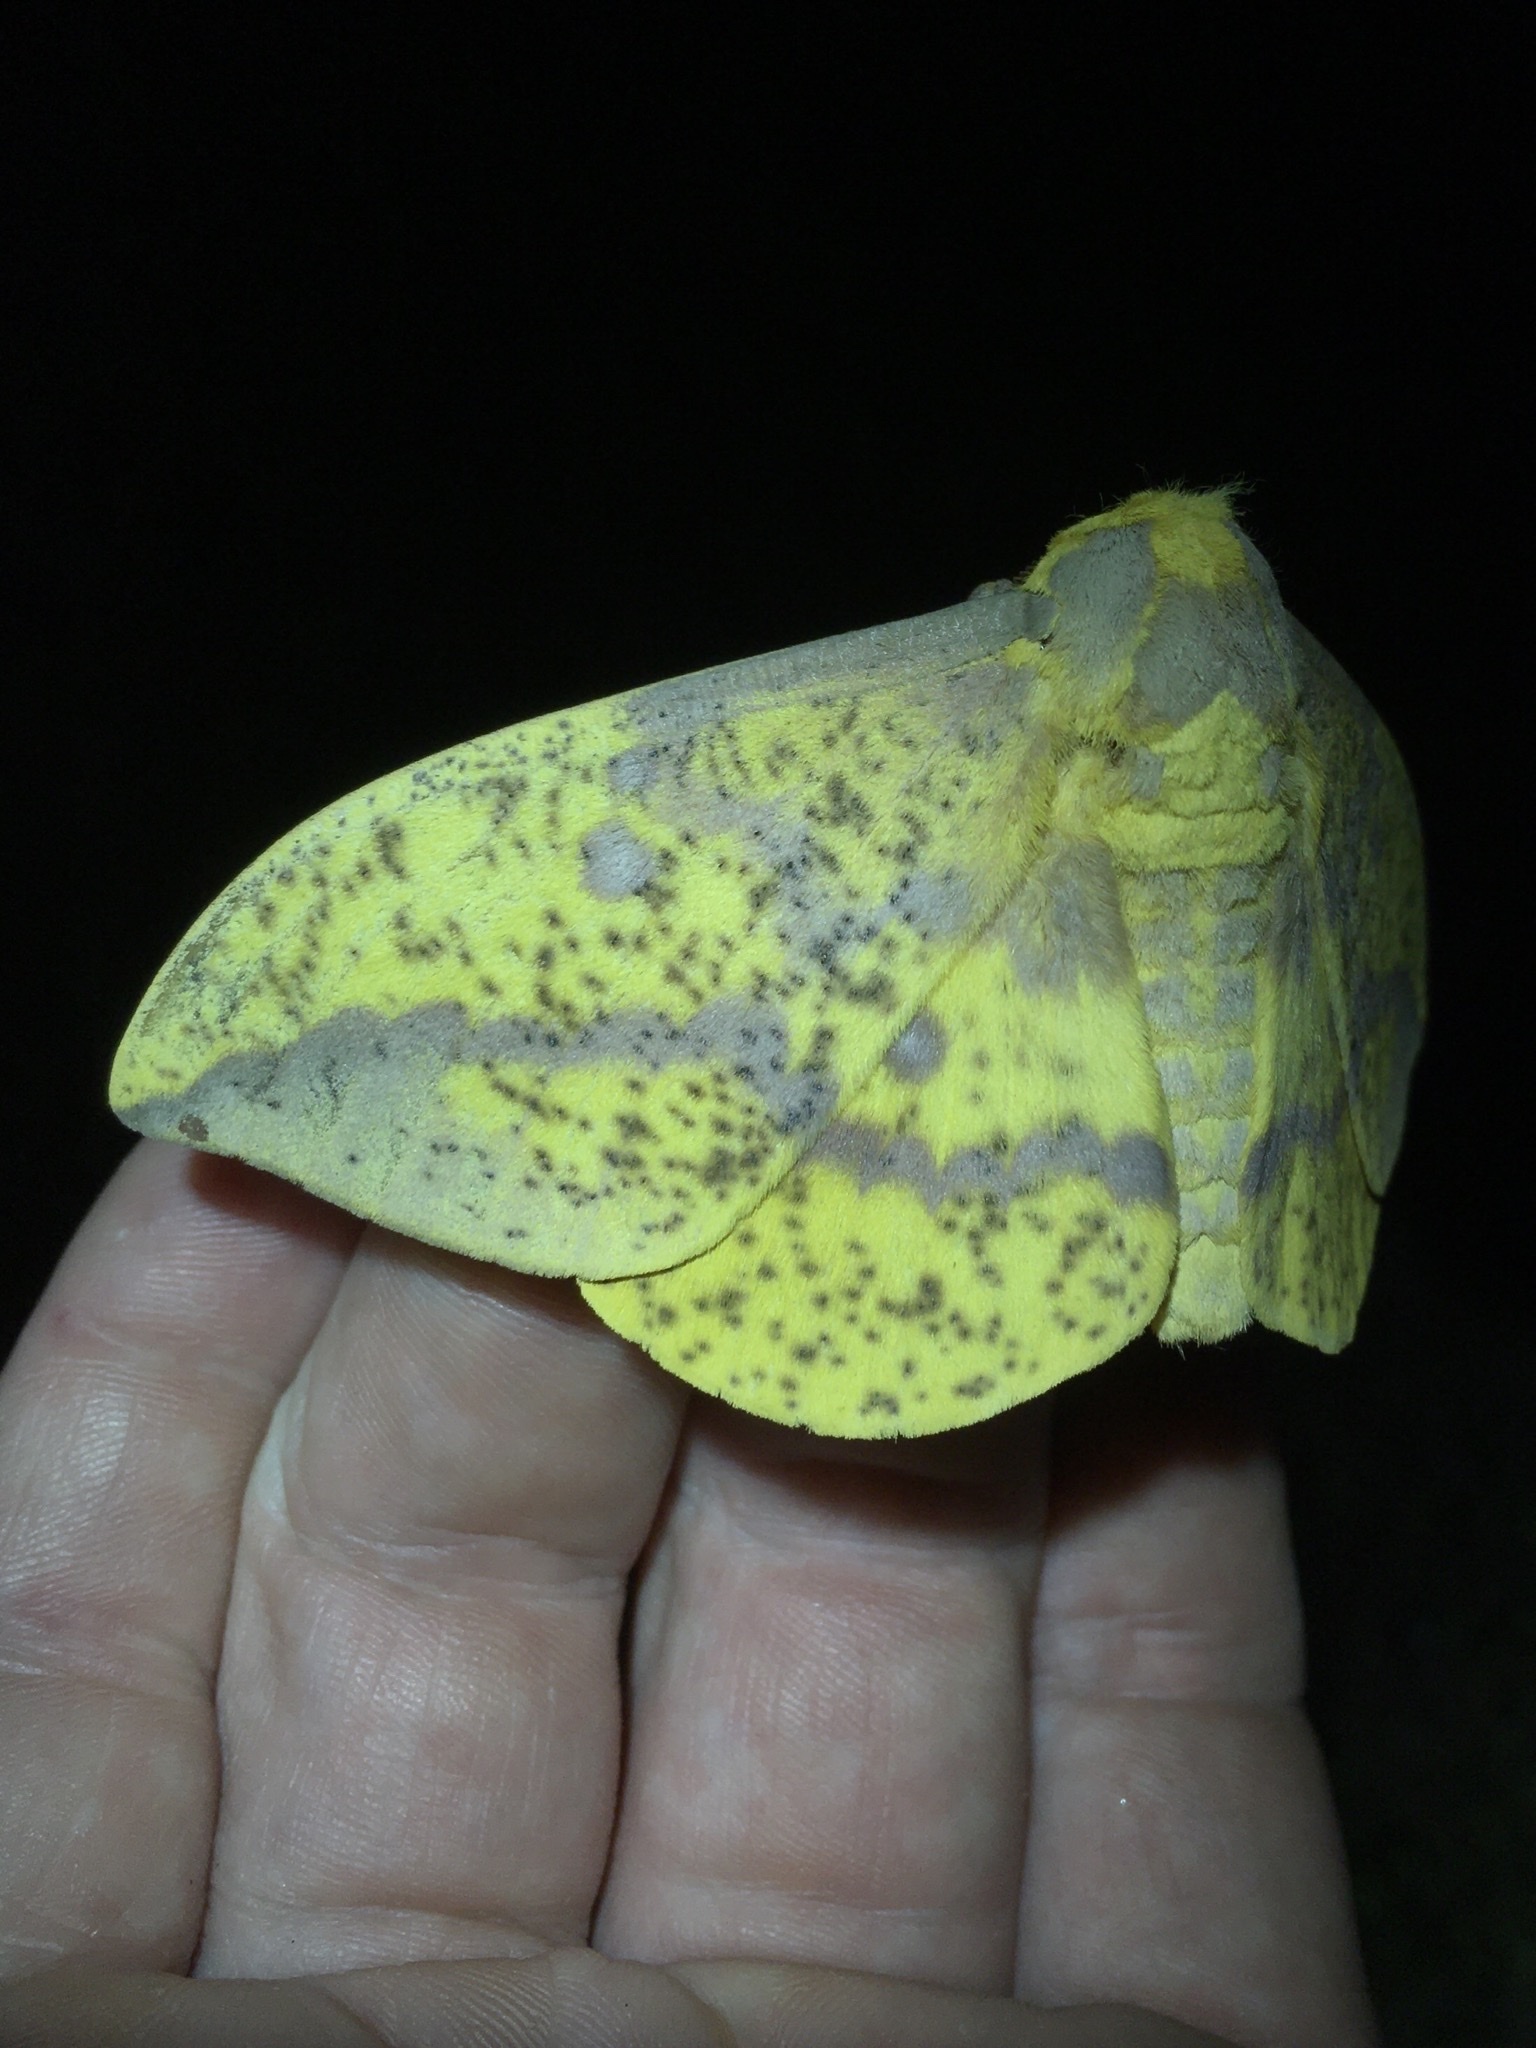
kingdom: Animalia
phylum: Arthropoda
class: Insecta
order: Lepidoptera
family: Saturniidae
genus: Eacles
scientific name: Eacles
